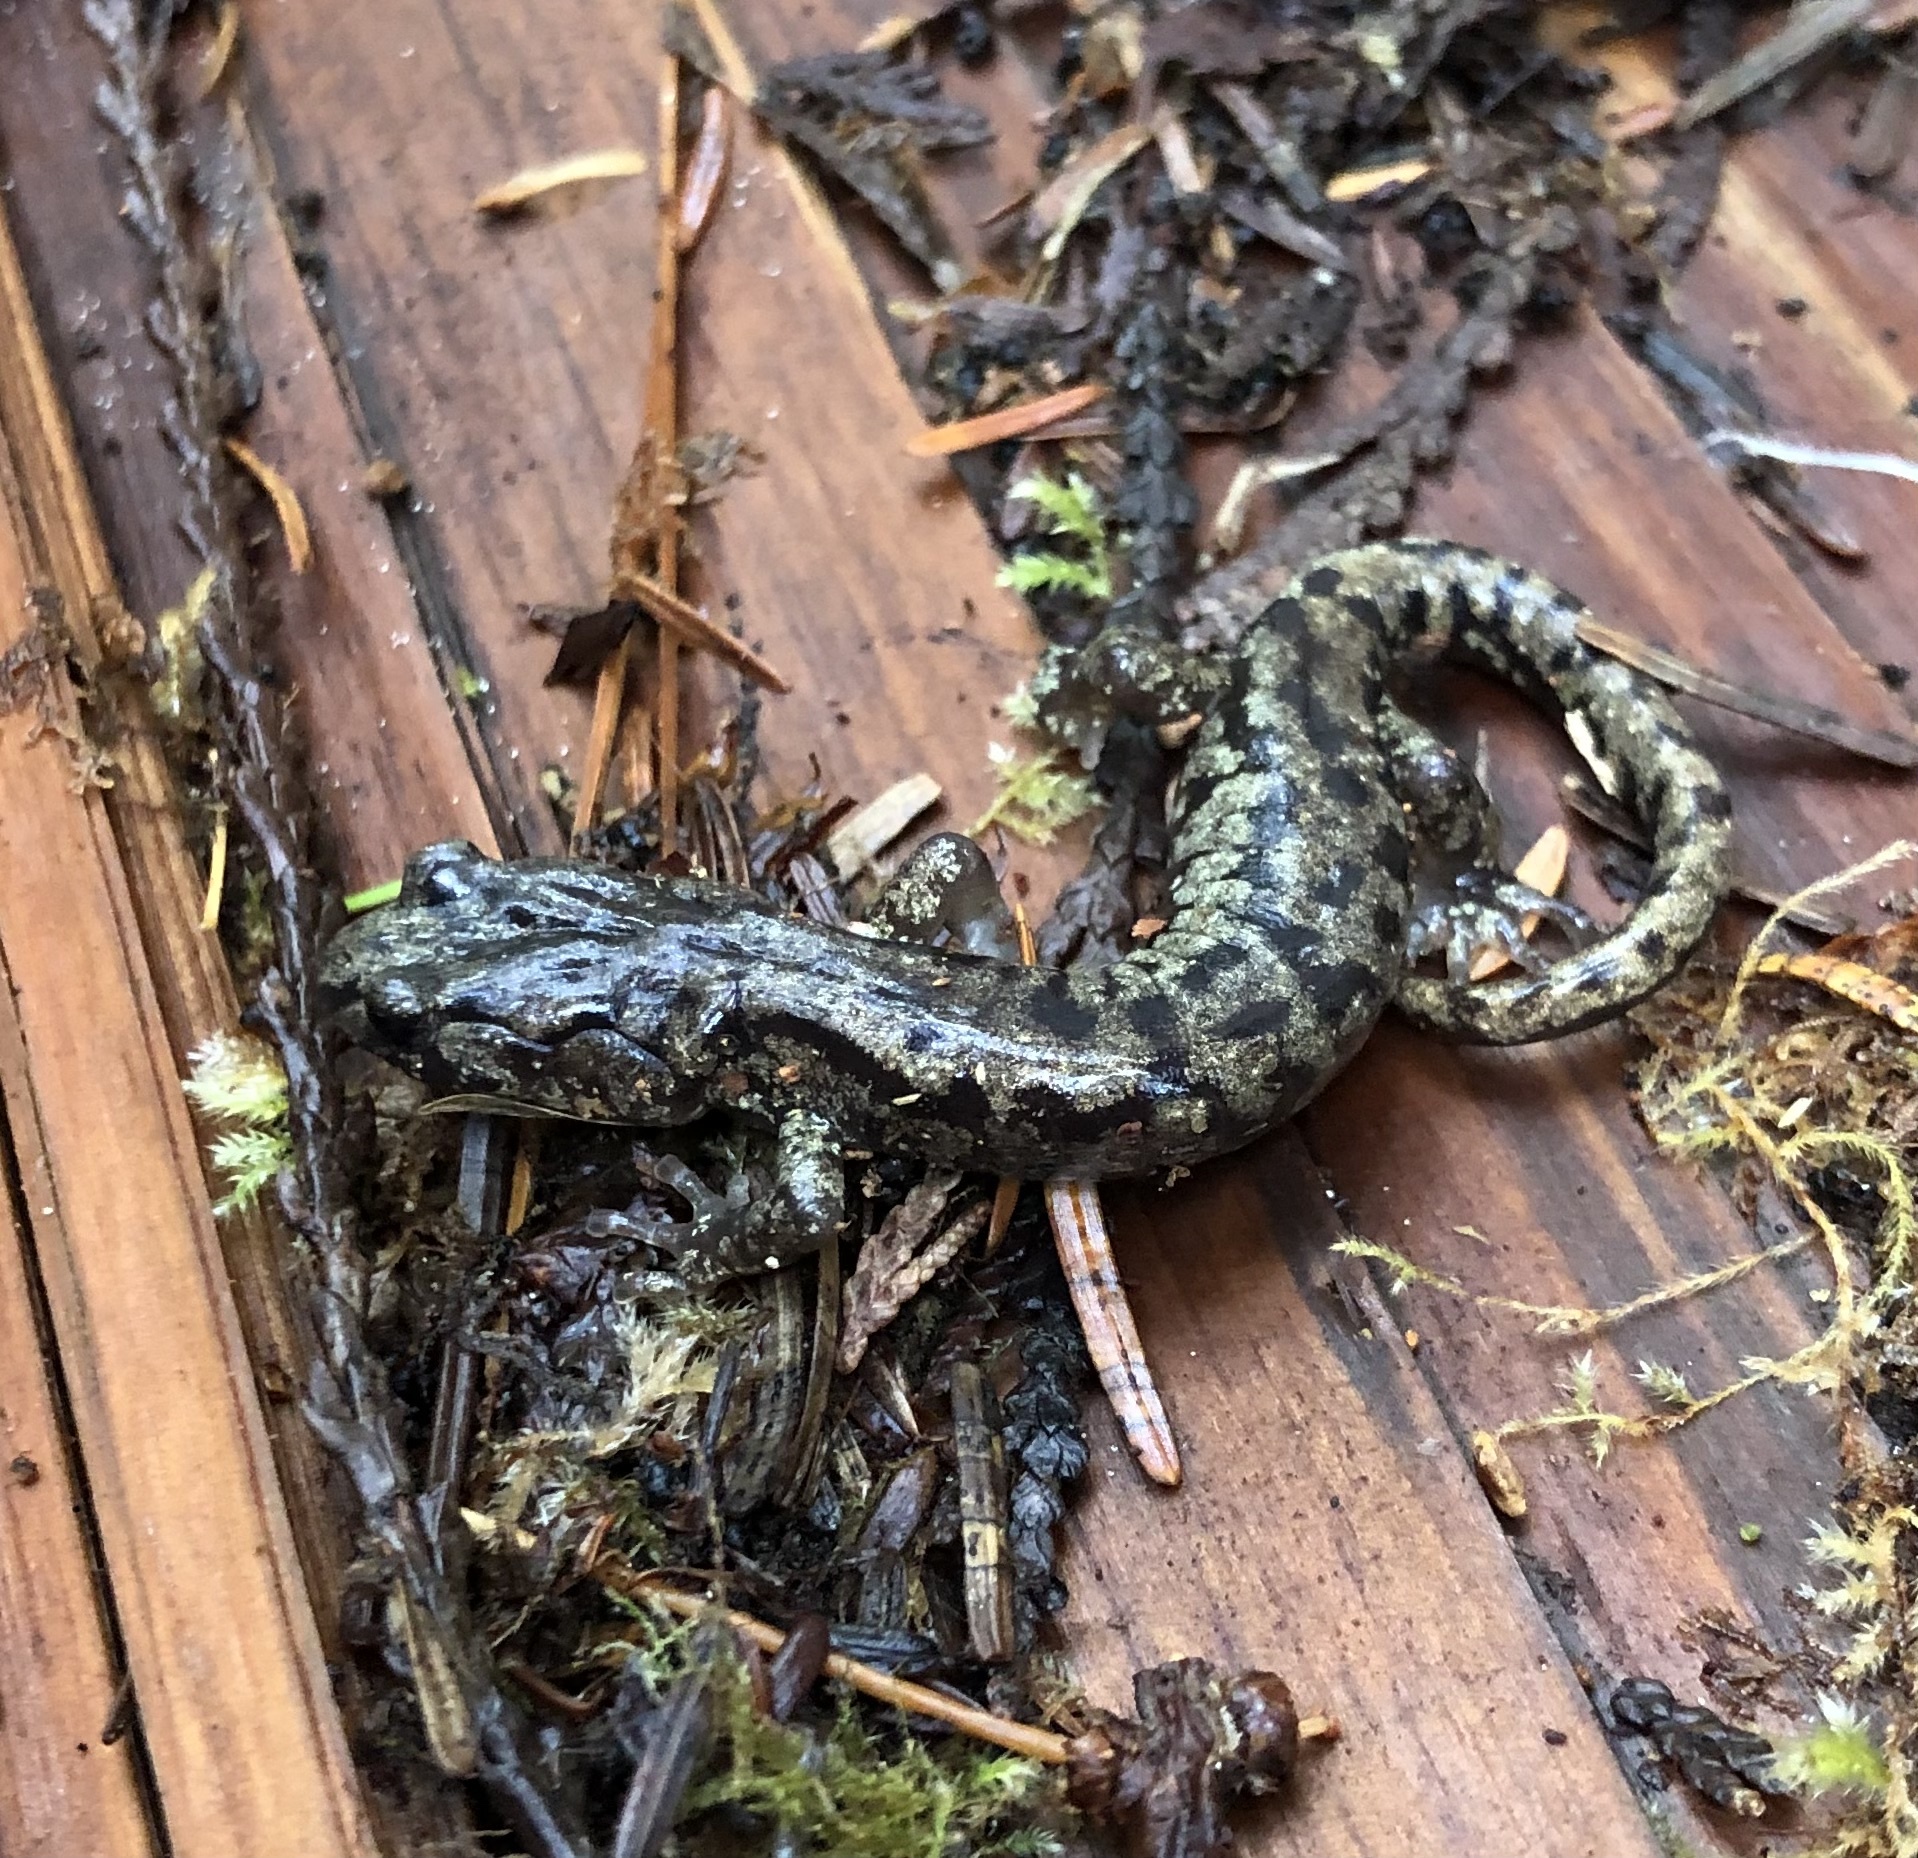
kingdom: Animalia
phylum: Chordata
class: Amphibia
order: Caudata
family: Plethodontidae
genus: Aneides
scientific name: Aneides vagrans
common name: Wandering salamander
